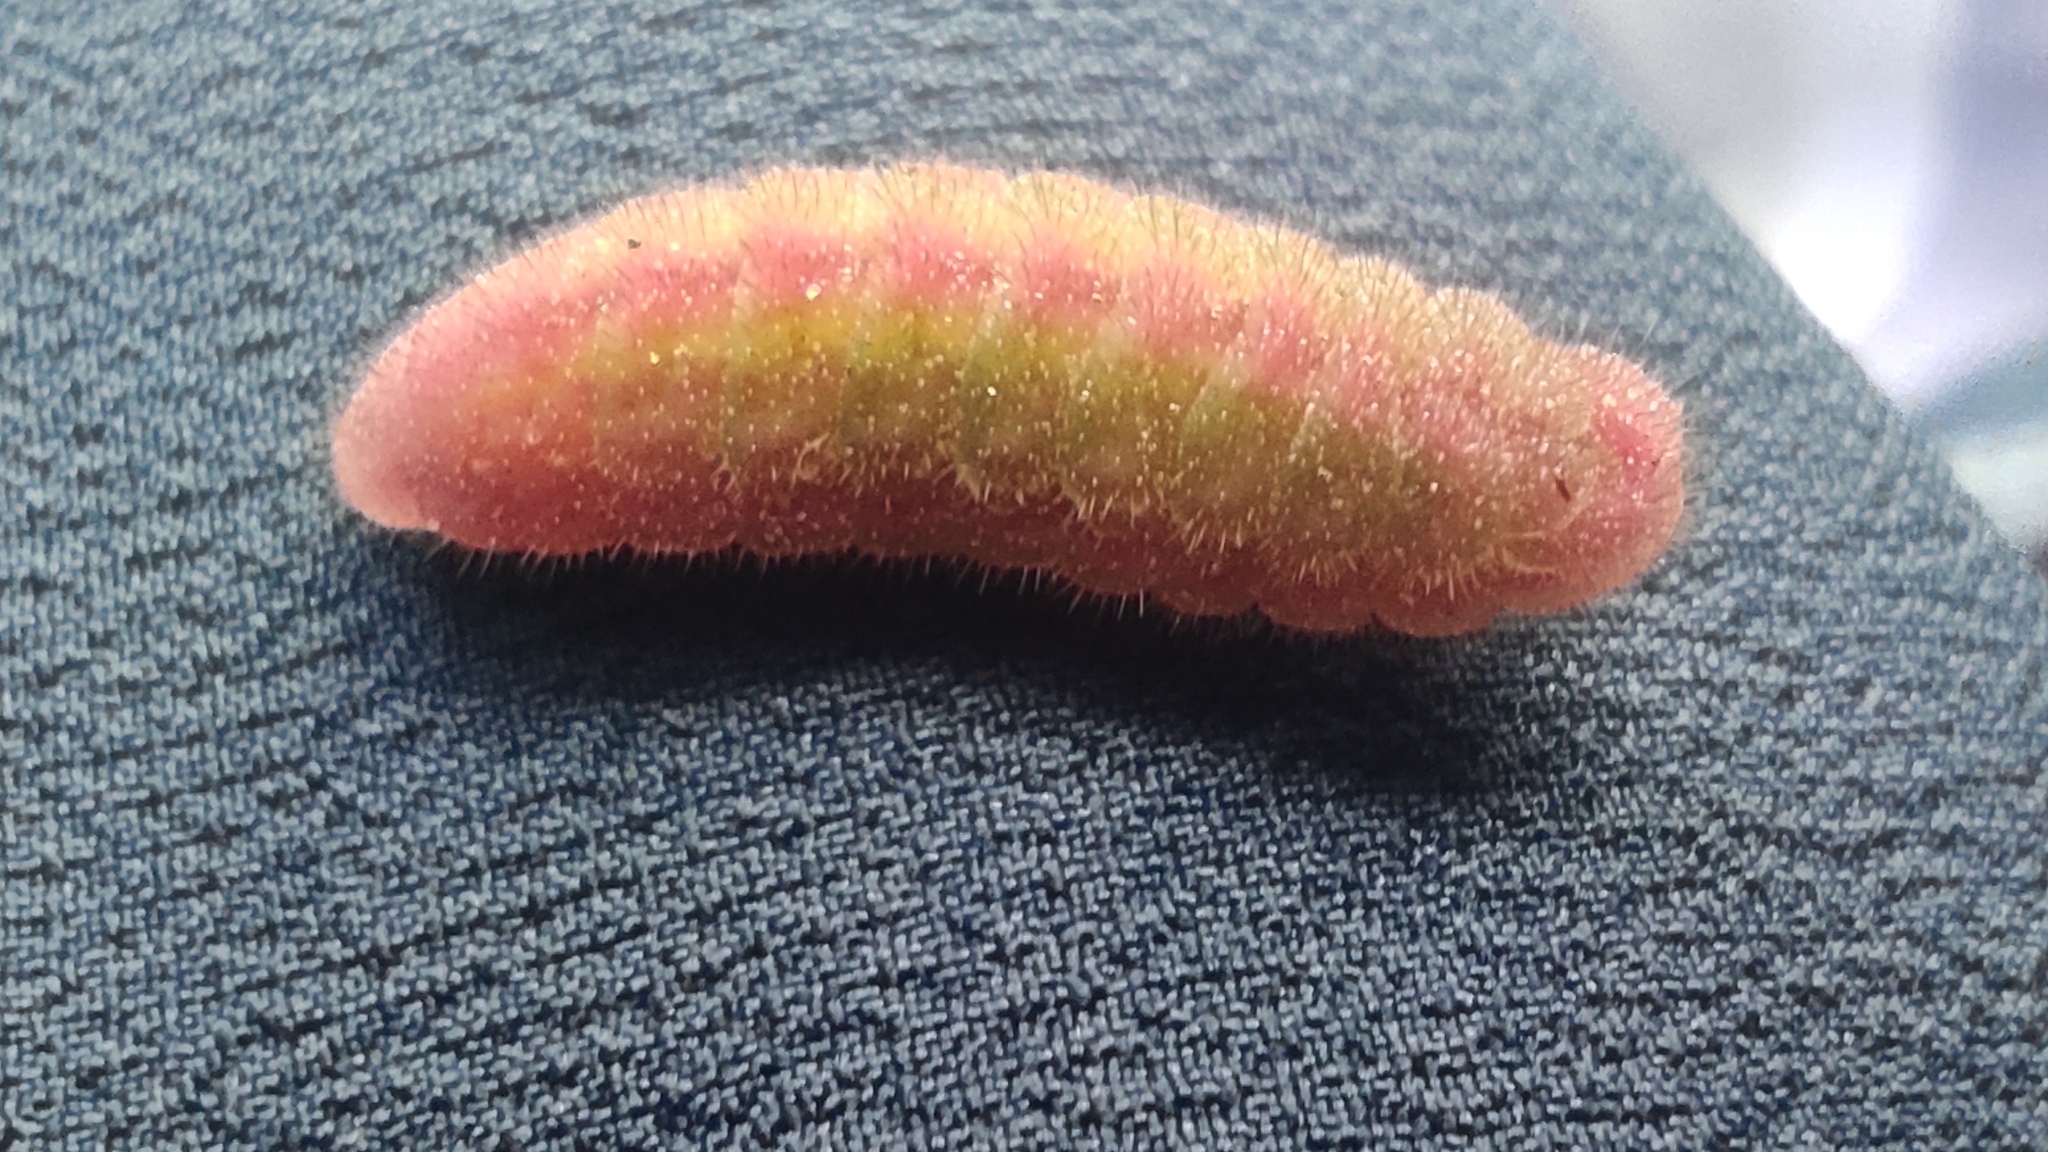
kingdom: Animalia
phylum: Arthropoda
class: Insecta
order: Lepidoptera
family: Lycaenidae
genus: Cacyreus
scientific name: Cacyreus marshalli
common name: Geranium bronze
